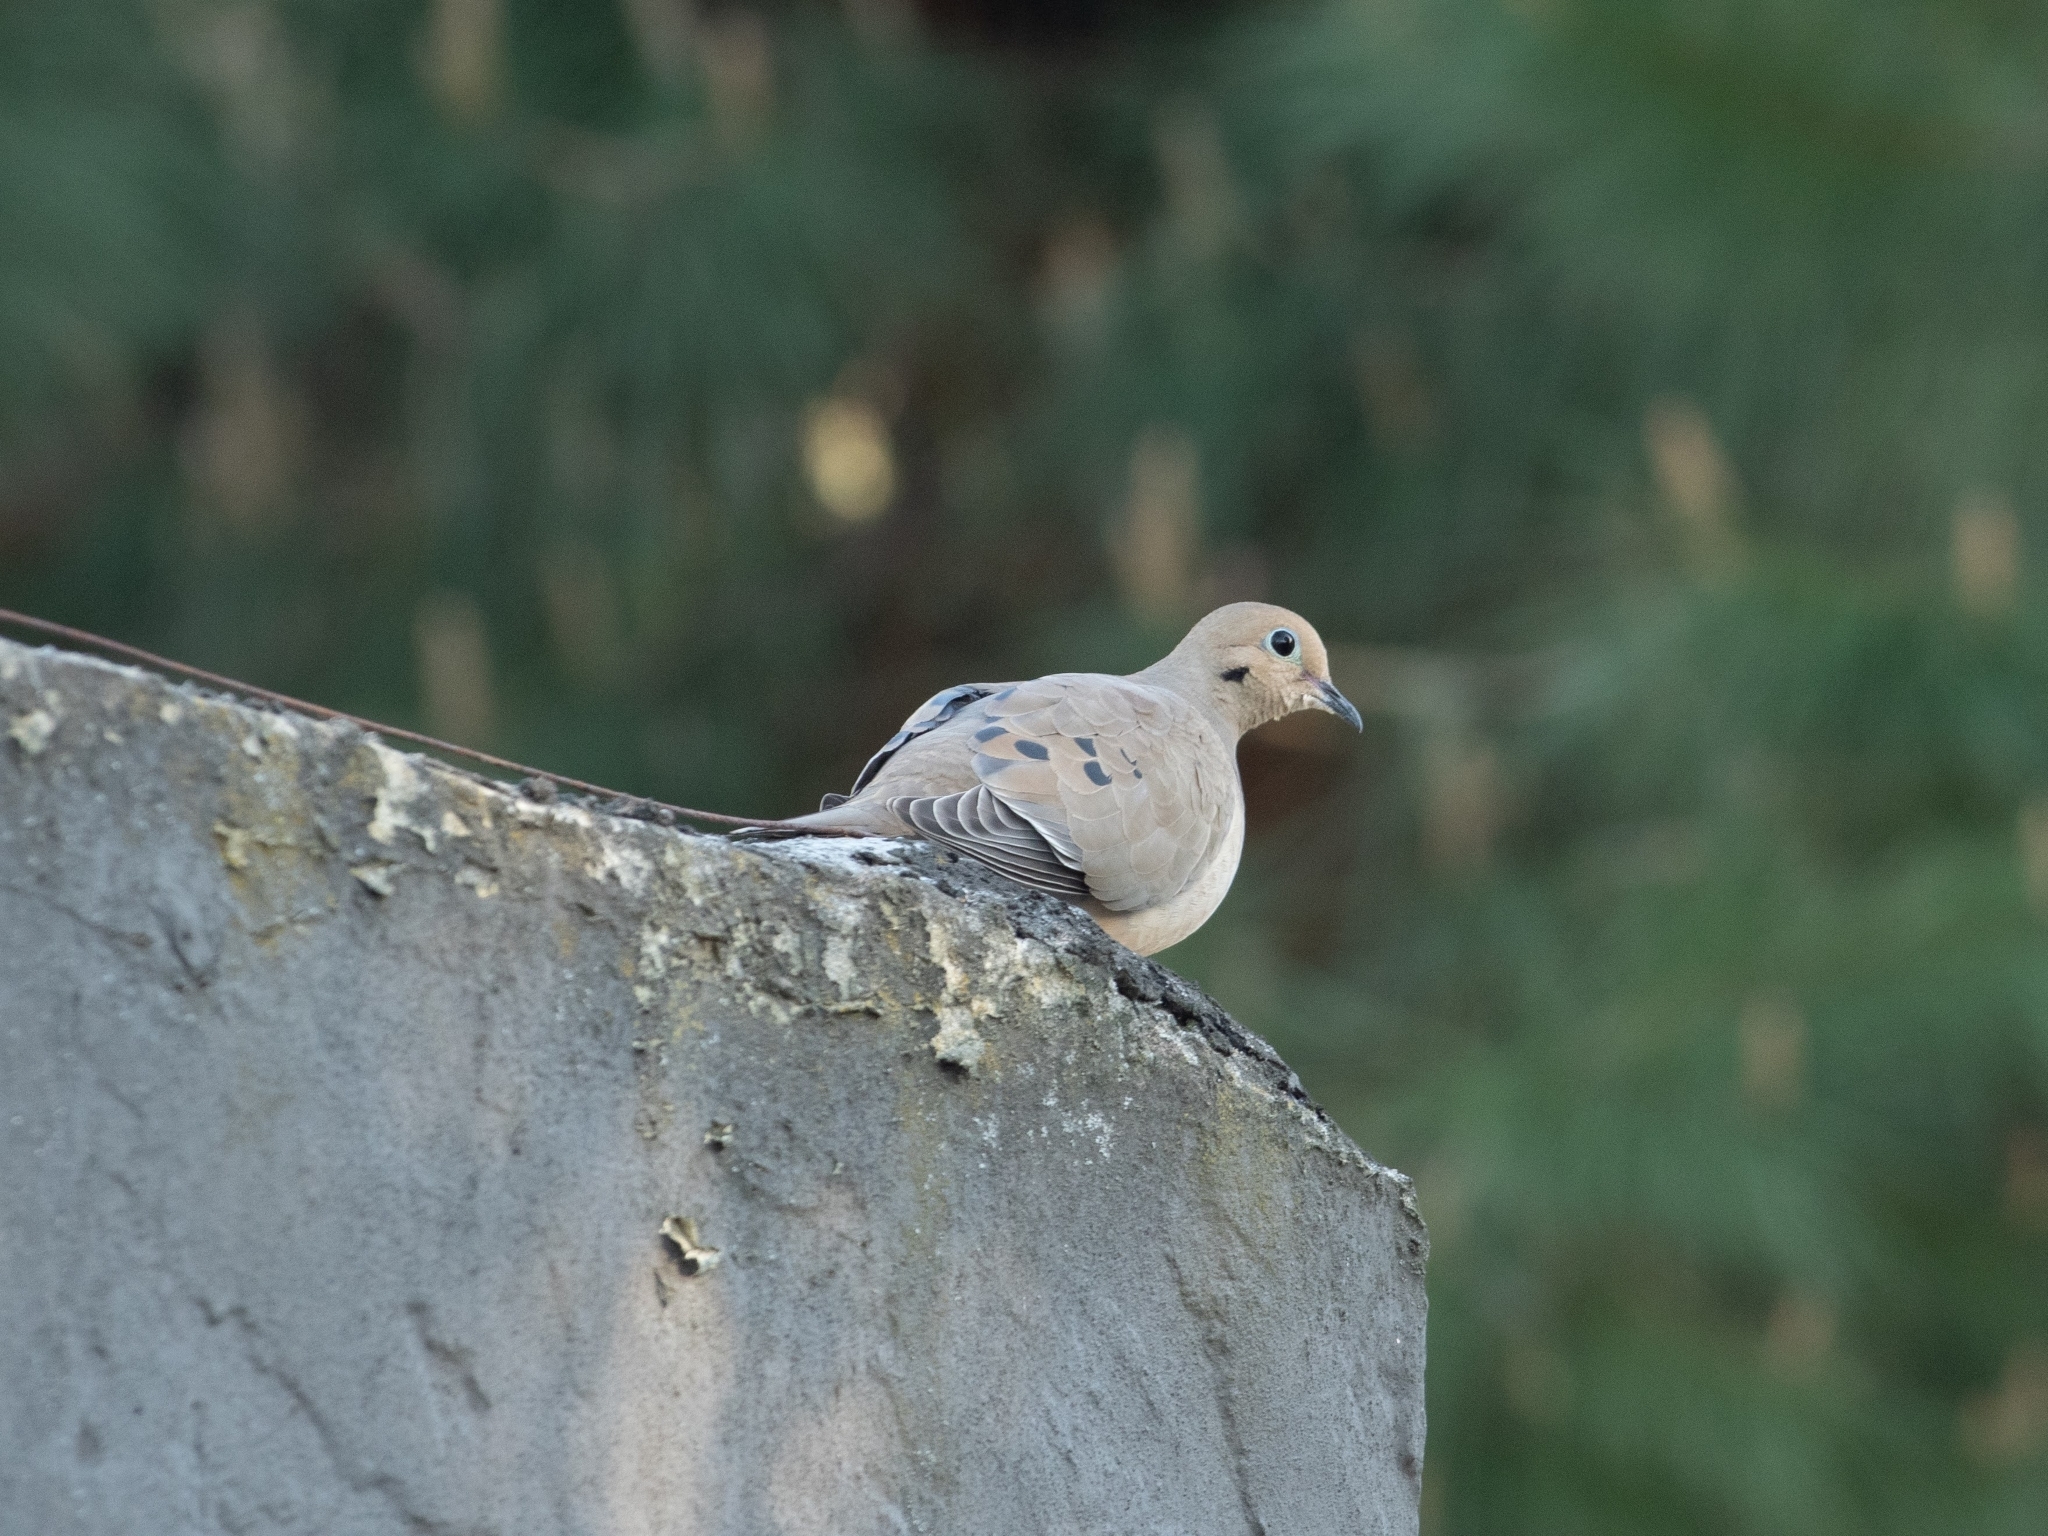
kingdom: Animalia
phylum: Chordata
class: Aves
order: Columbiformes
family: Columbidae
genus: Zenaida
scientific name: Zenaida macroura
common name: Mourning dove
